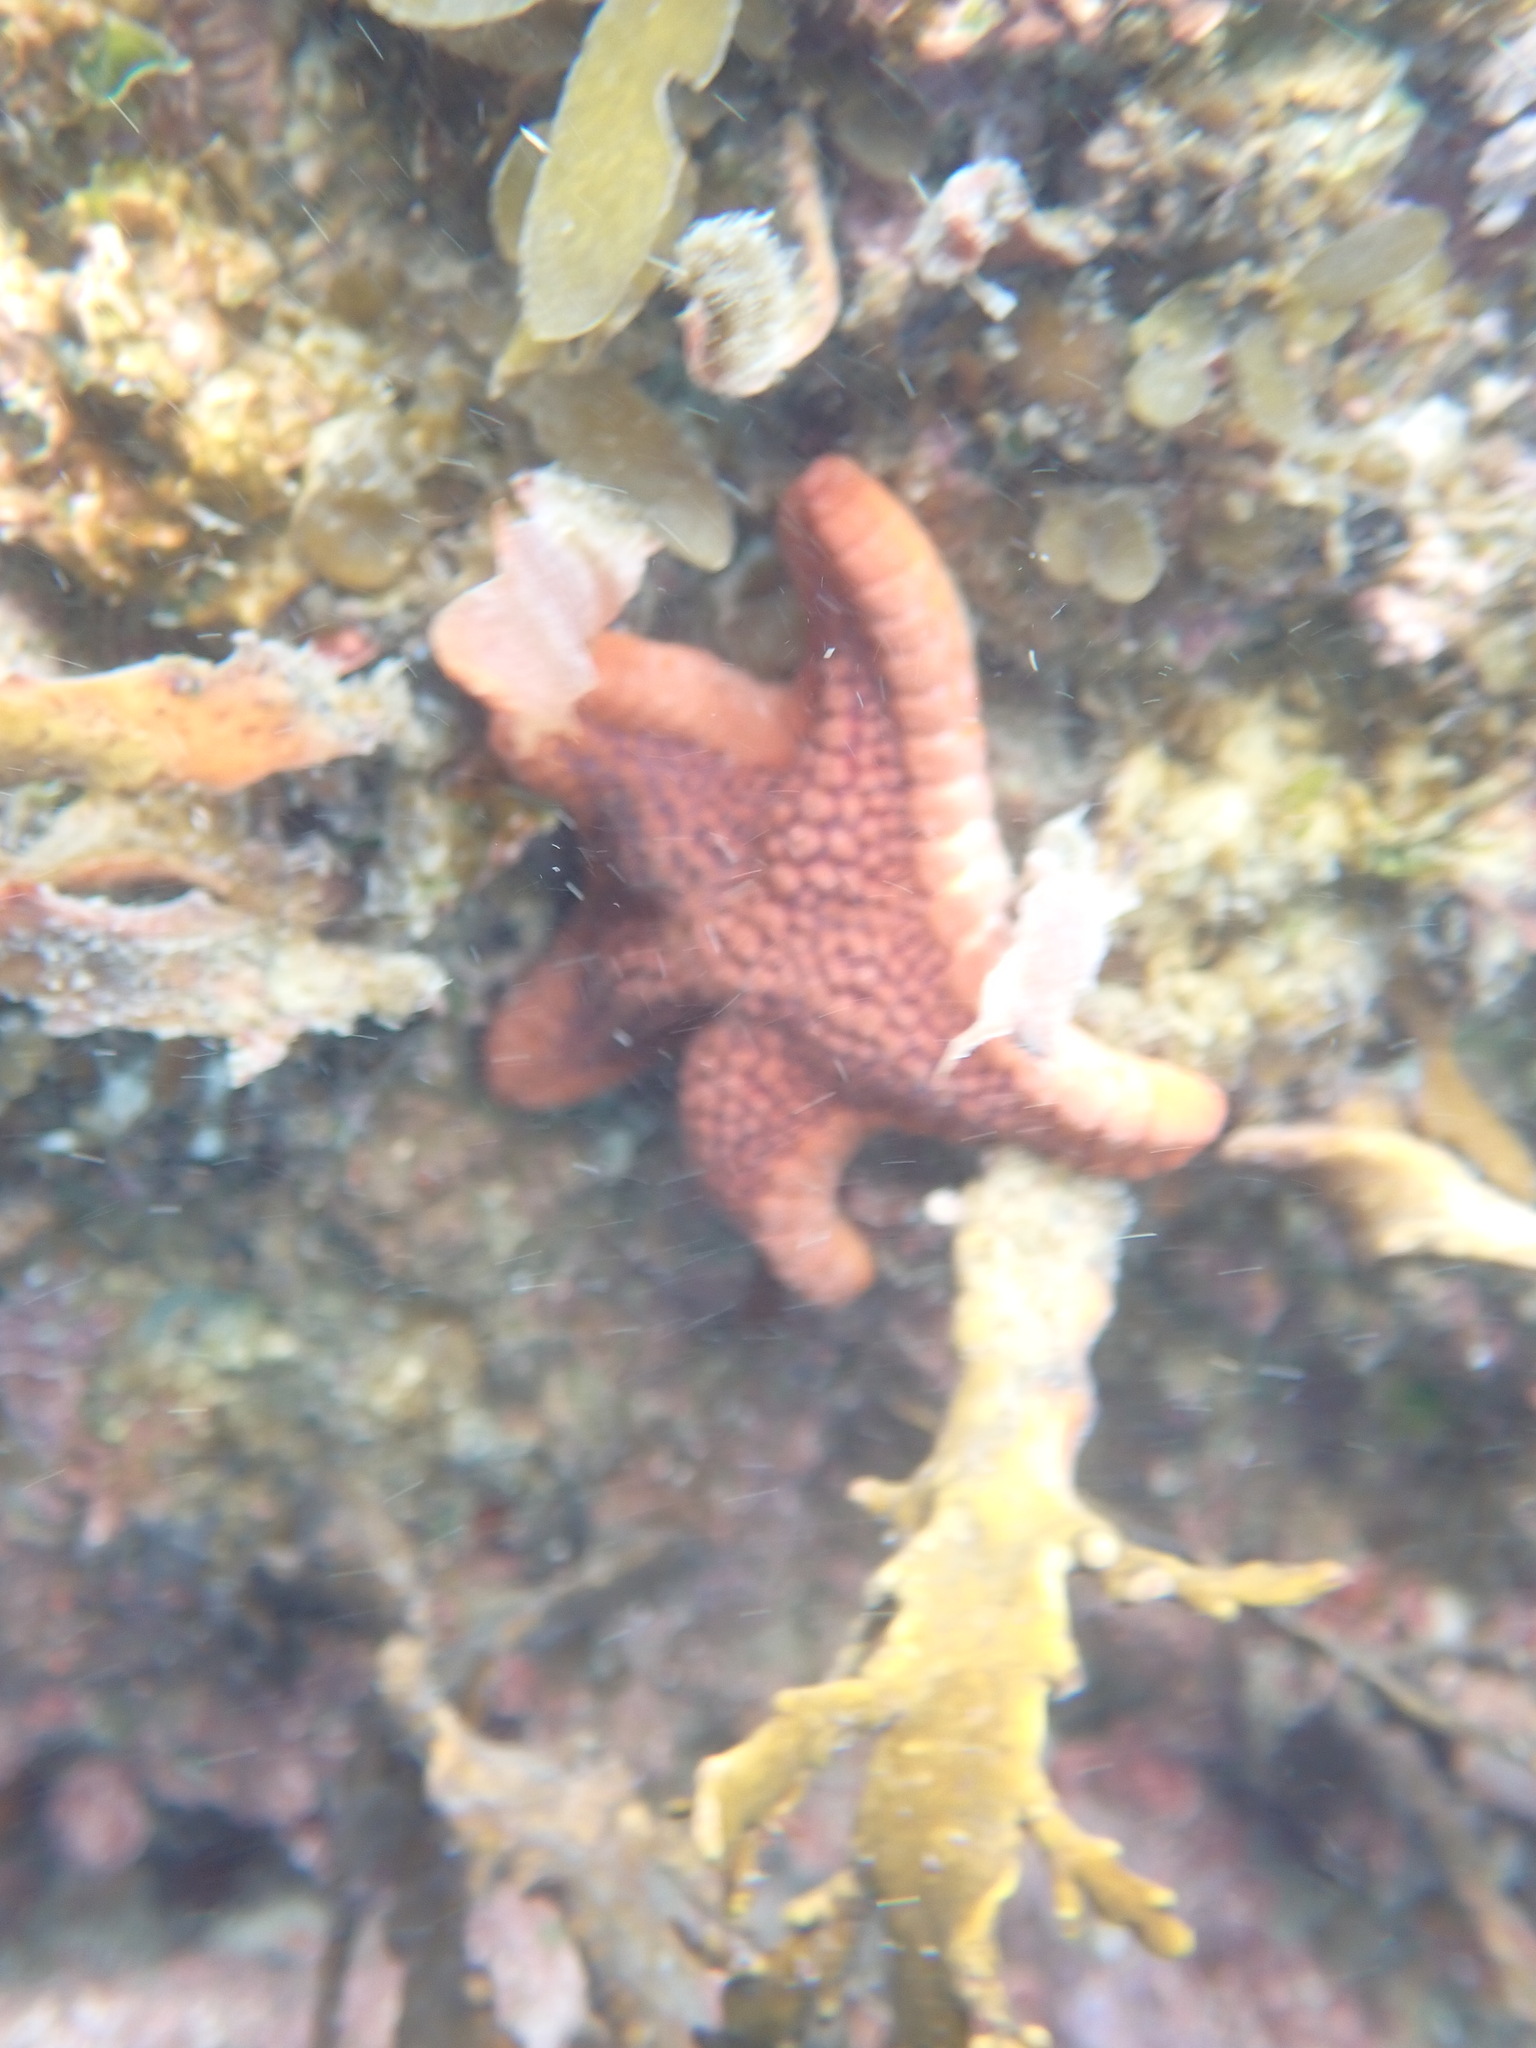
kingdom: Animalia
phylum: Echinodermata
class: Asteroidea
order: Valvatida
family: Odontasteridae
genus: Diplodontias
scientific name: Diplodontias dilatatus
